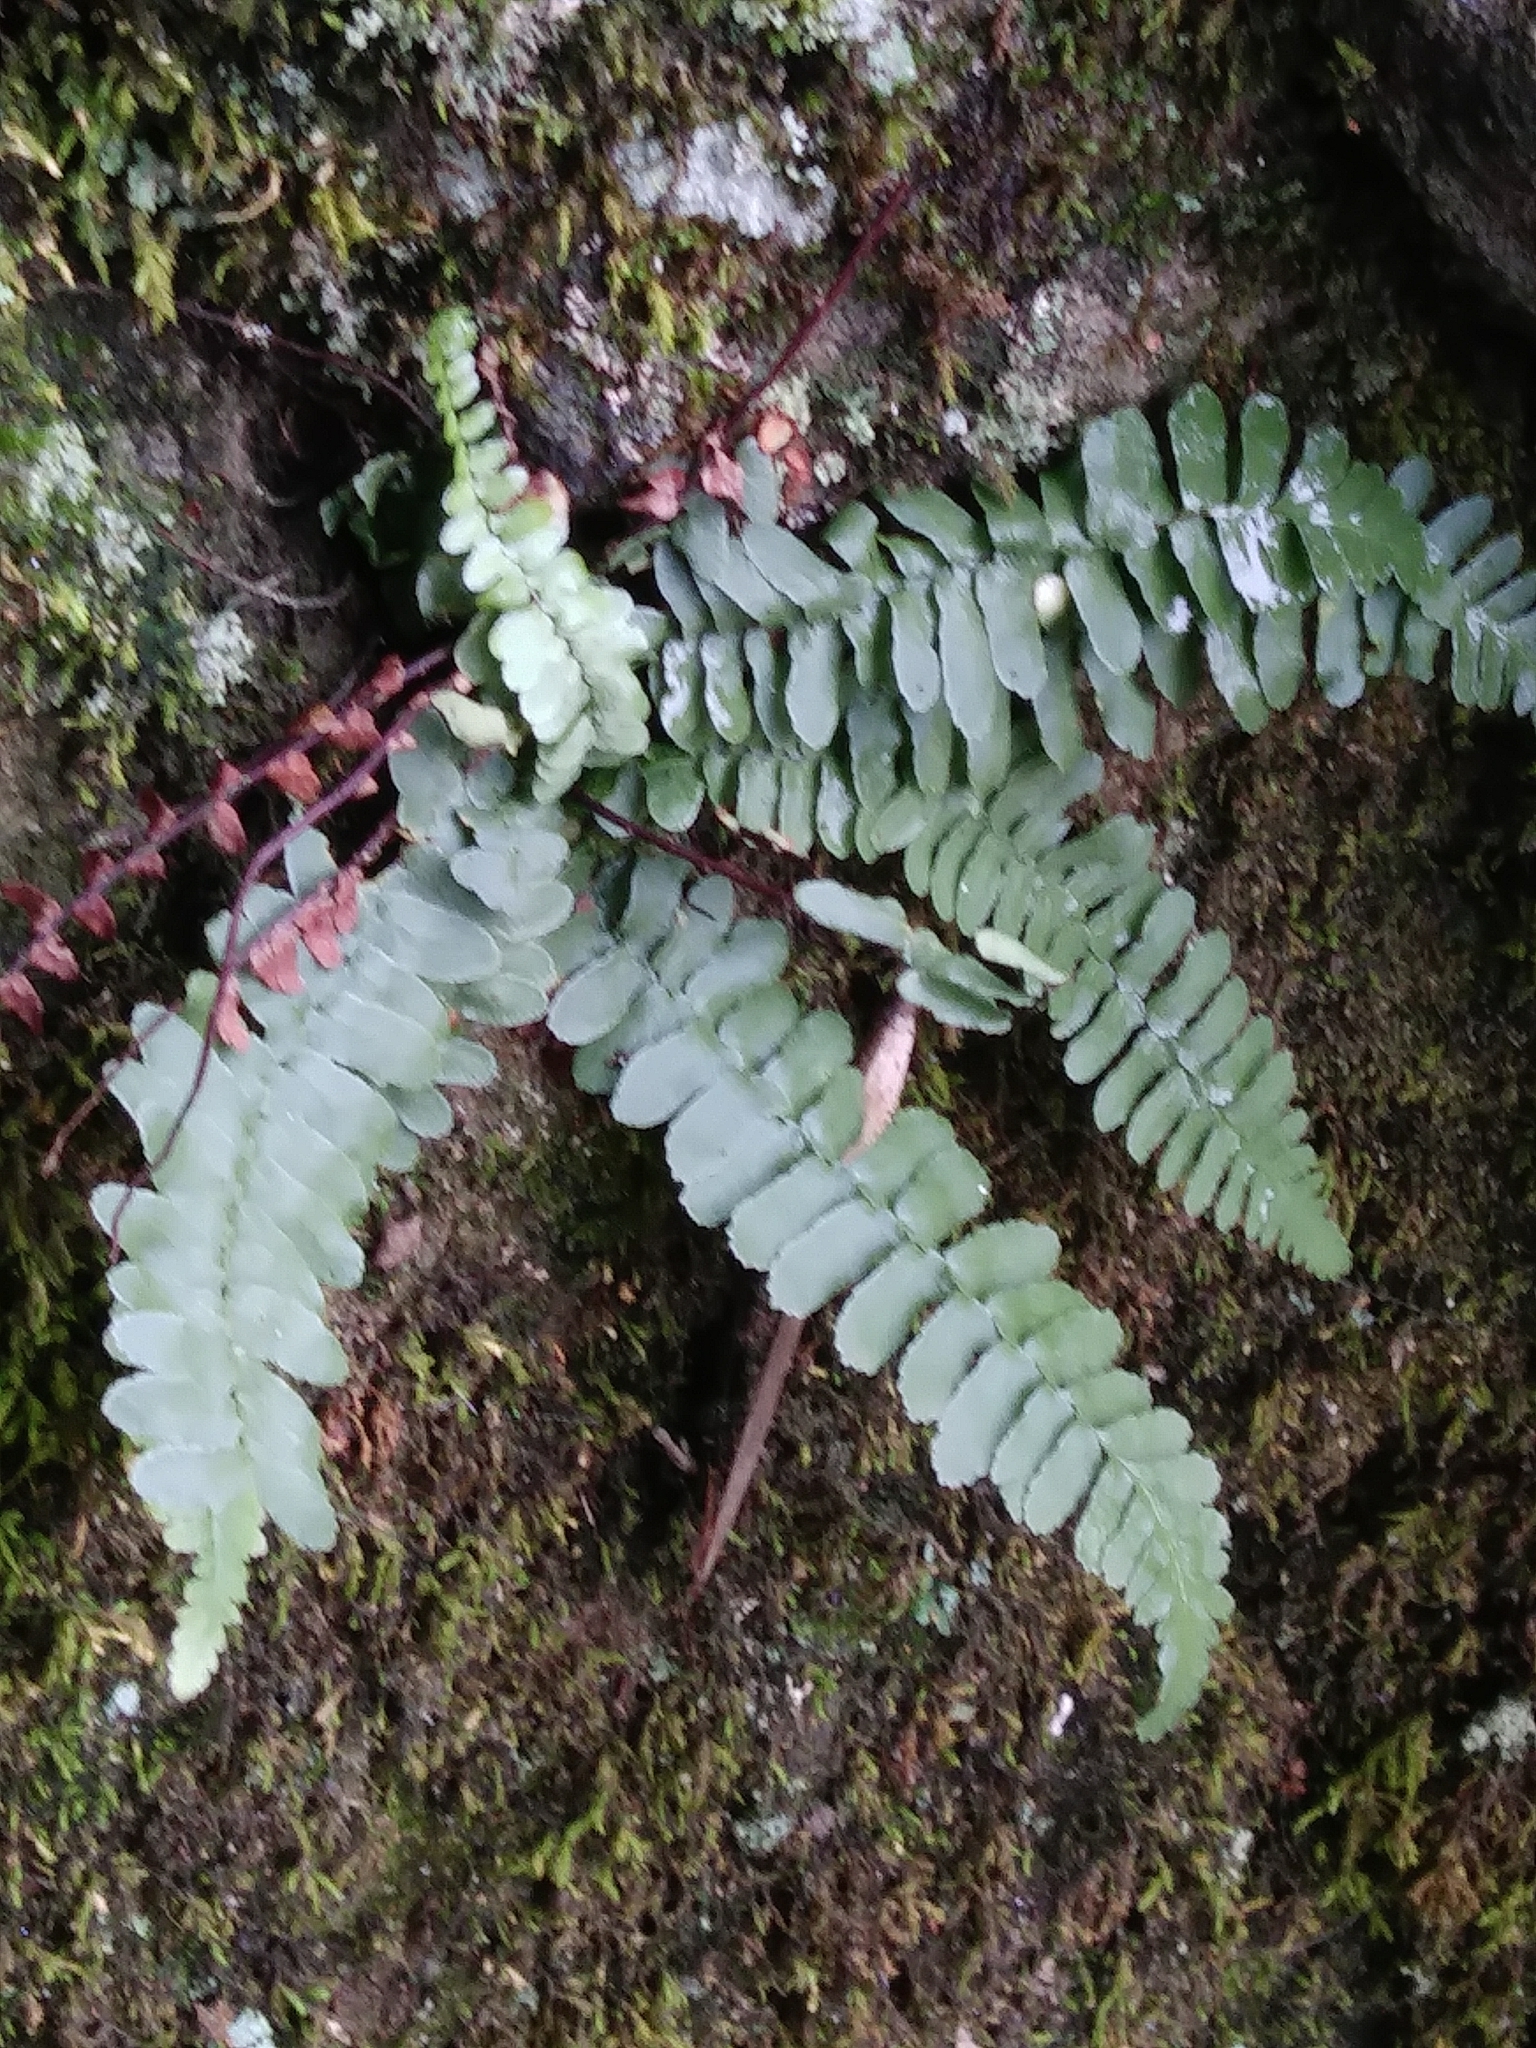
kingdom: Plantae
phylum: Tracheophyta
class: Polypodiopsida
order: Polypodiales
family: Aspleniaceae
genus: Asplenium
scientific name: Asplenium platyneuron
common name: Ebony spleenwort
